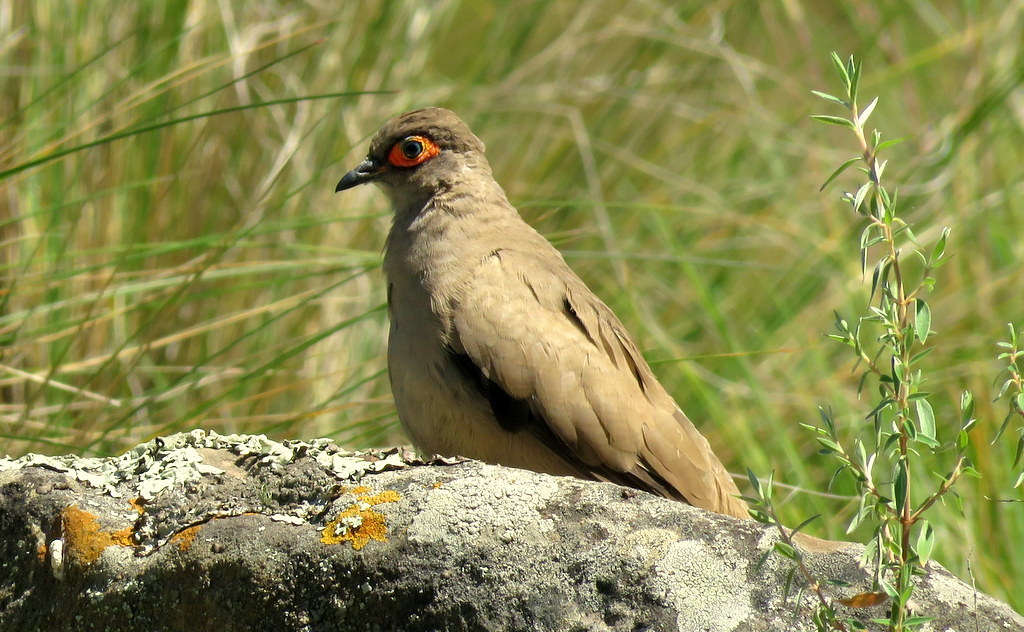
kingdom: Animalia
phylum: Chordata
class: Aves
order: Columbiformes
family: Columbidae
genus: Metriopelia
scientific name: Metriopelia morenoi
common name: Moreno's ground dove
